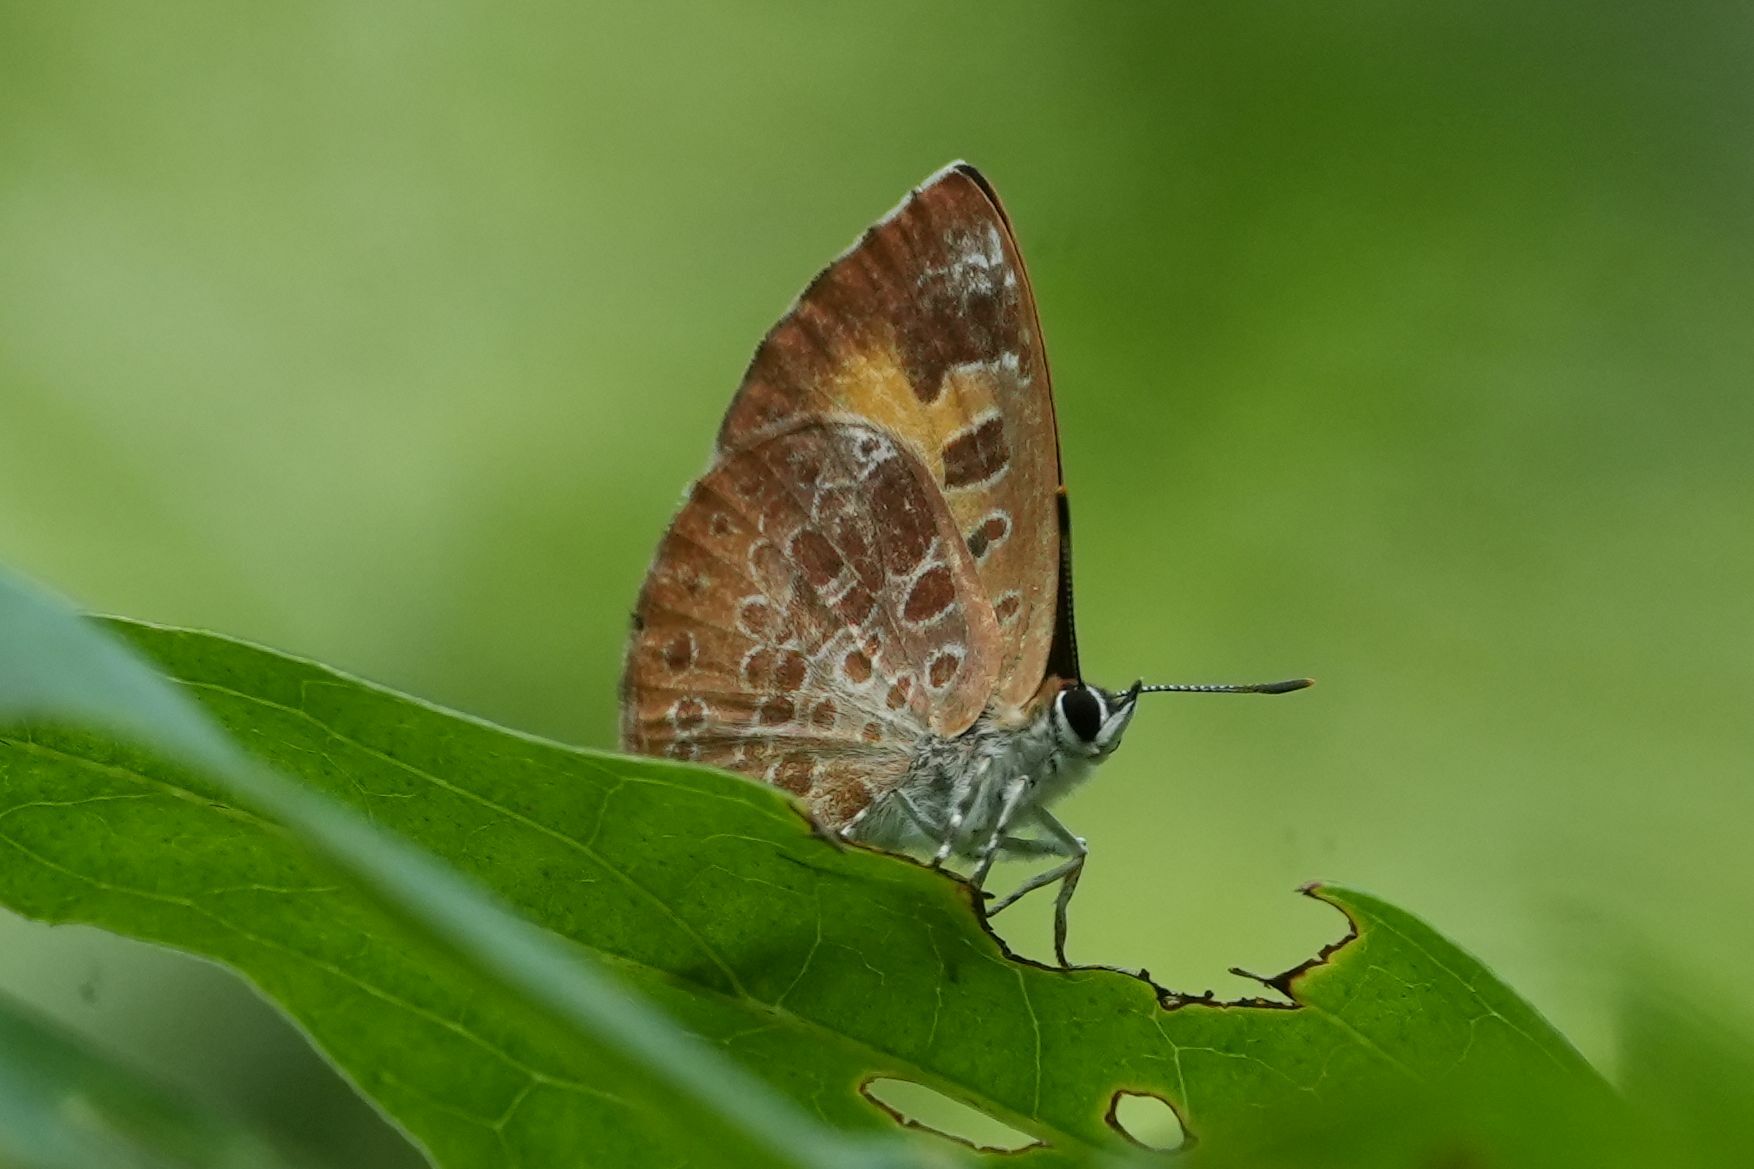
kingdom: Animalia
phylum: Arthropoda
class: Insecta
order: Lepidoptera
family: Lycaenidae
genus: Feniseca
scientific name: Feniseca tarquinius
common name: Harvester
